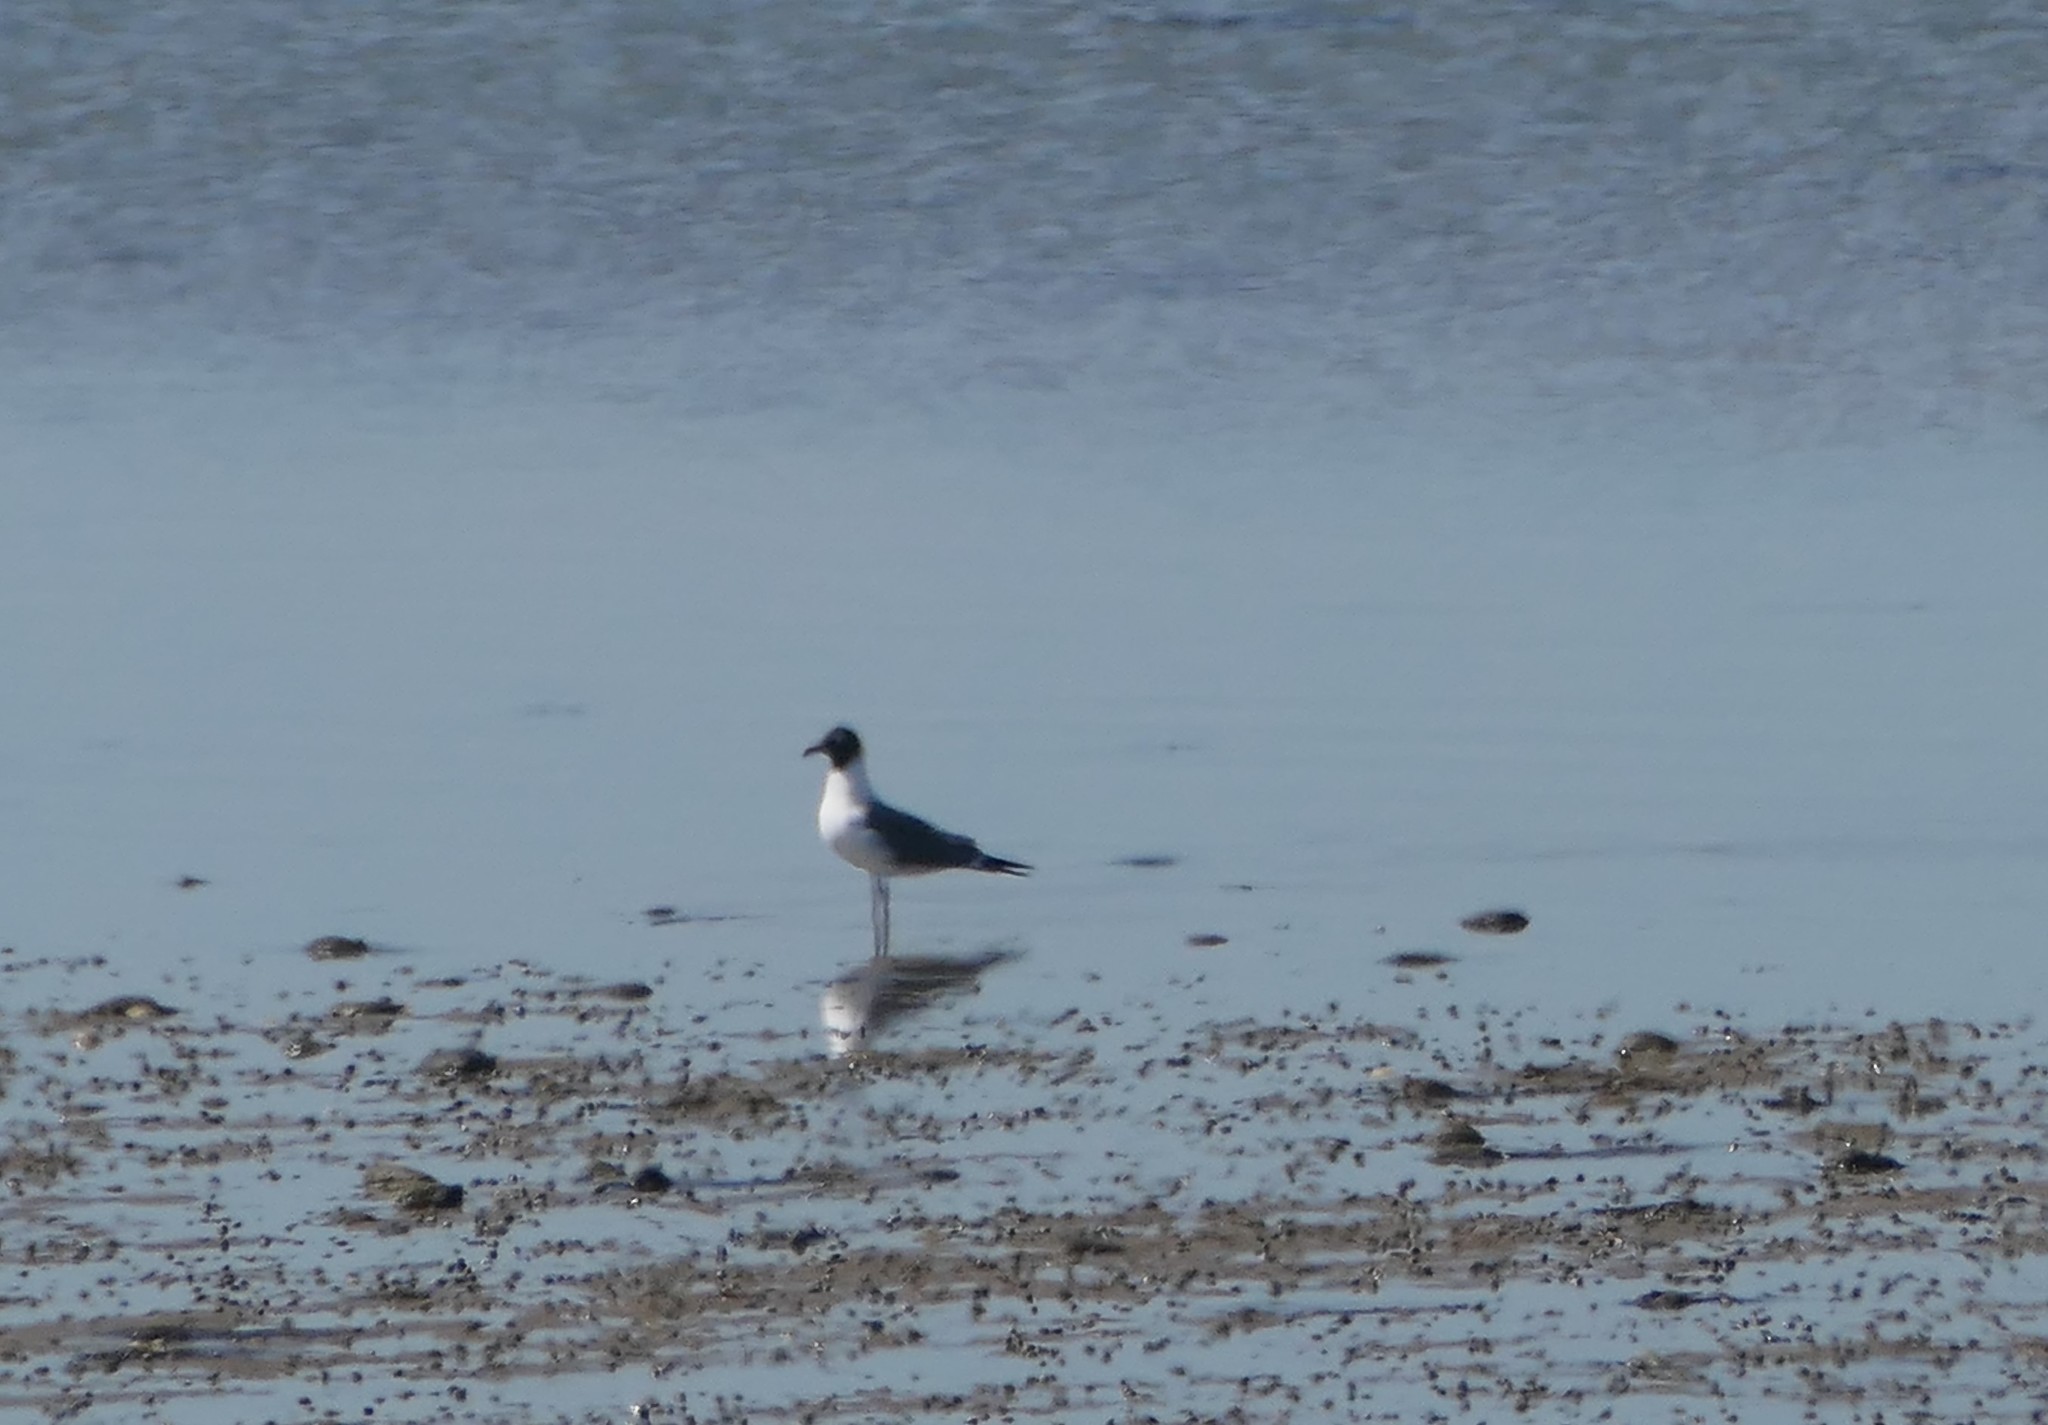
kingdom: Animalia
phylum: Chordata
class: Aves
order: Charadriiformes
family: Laridae
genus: Leucophaeus
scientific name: Leucophaeus atricilla
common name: Laughing gull
